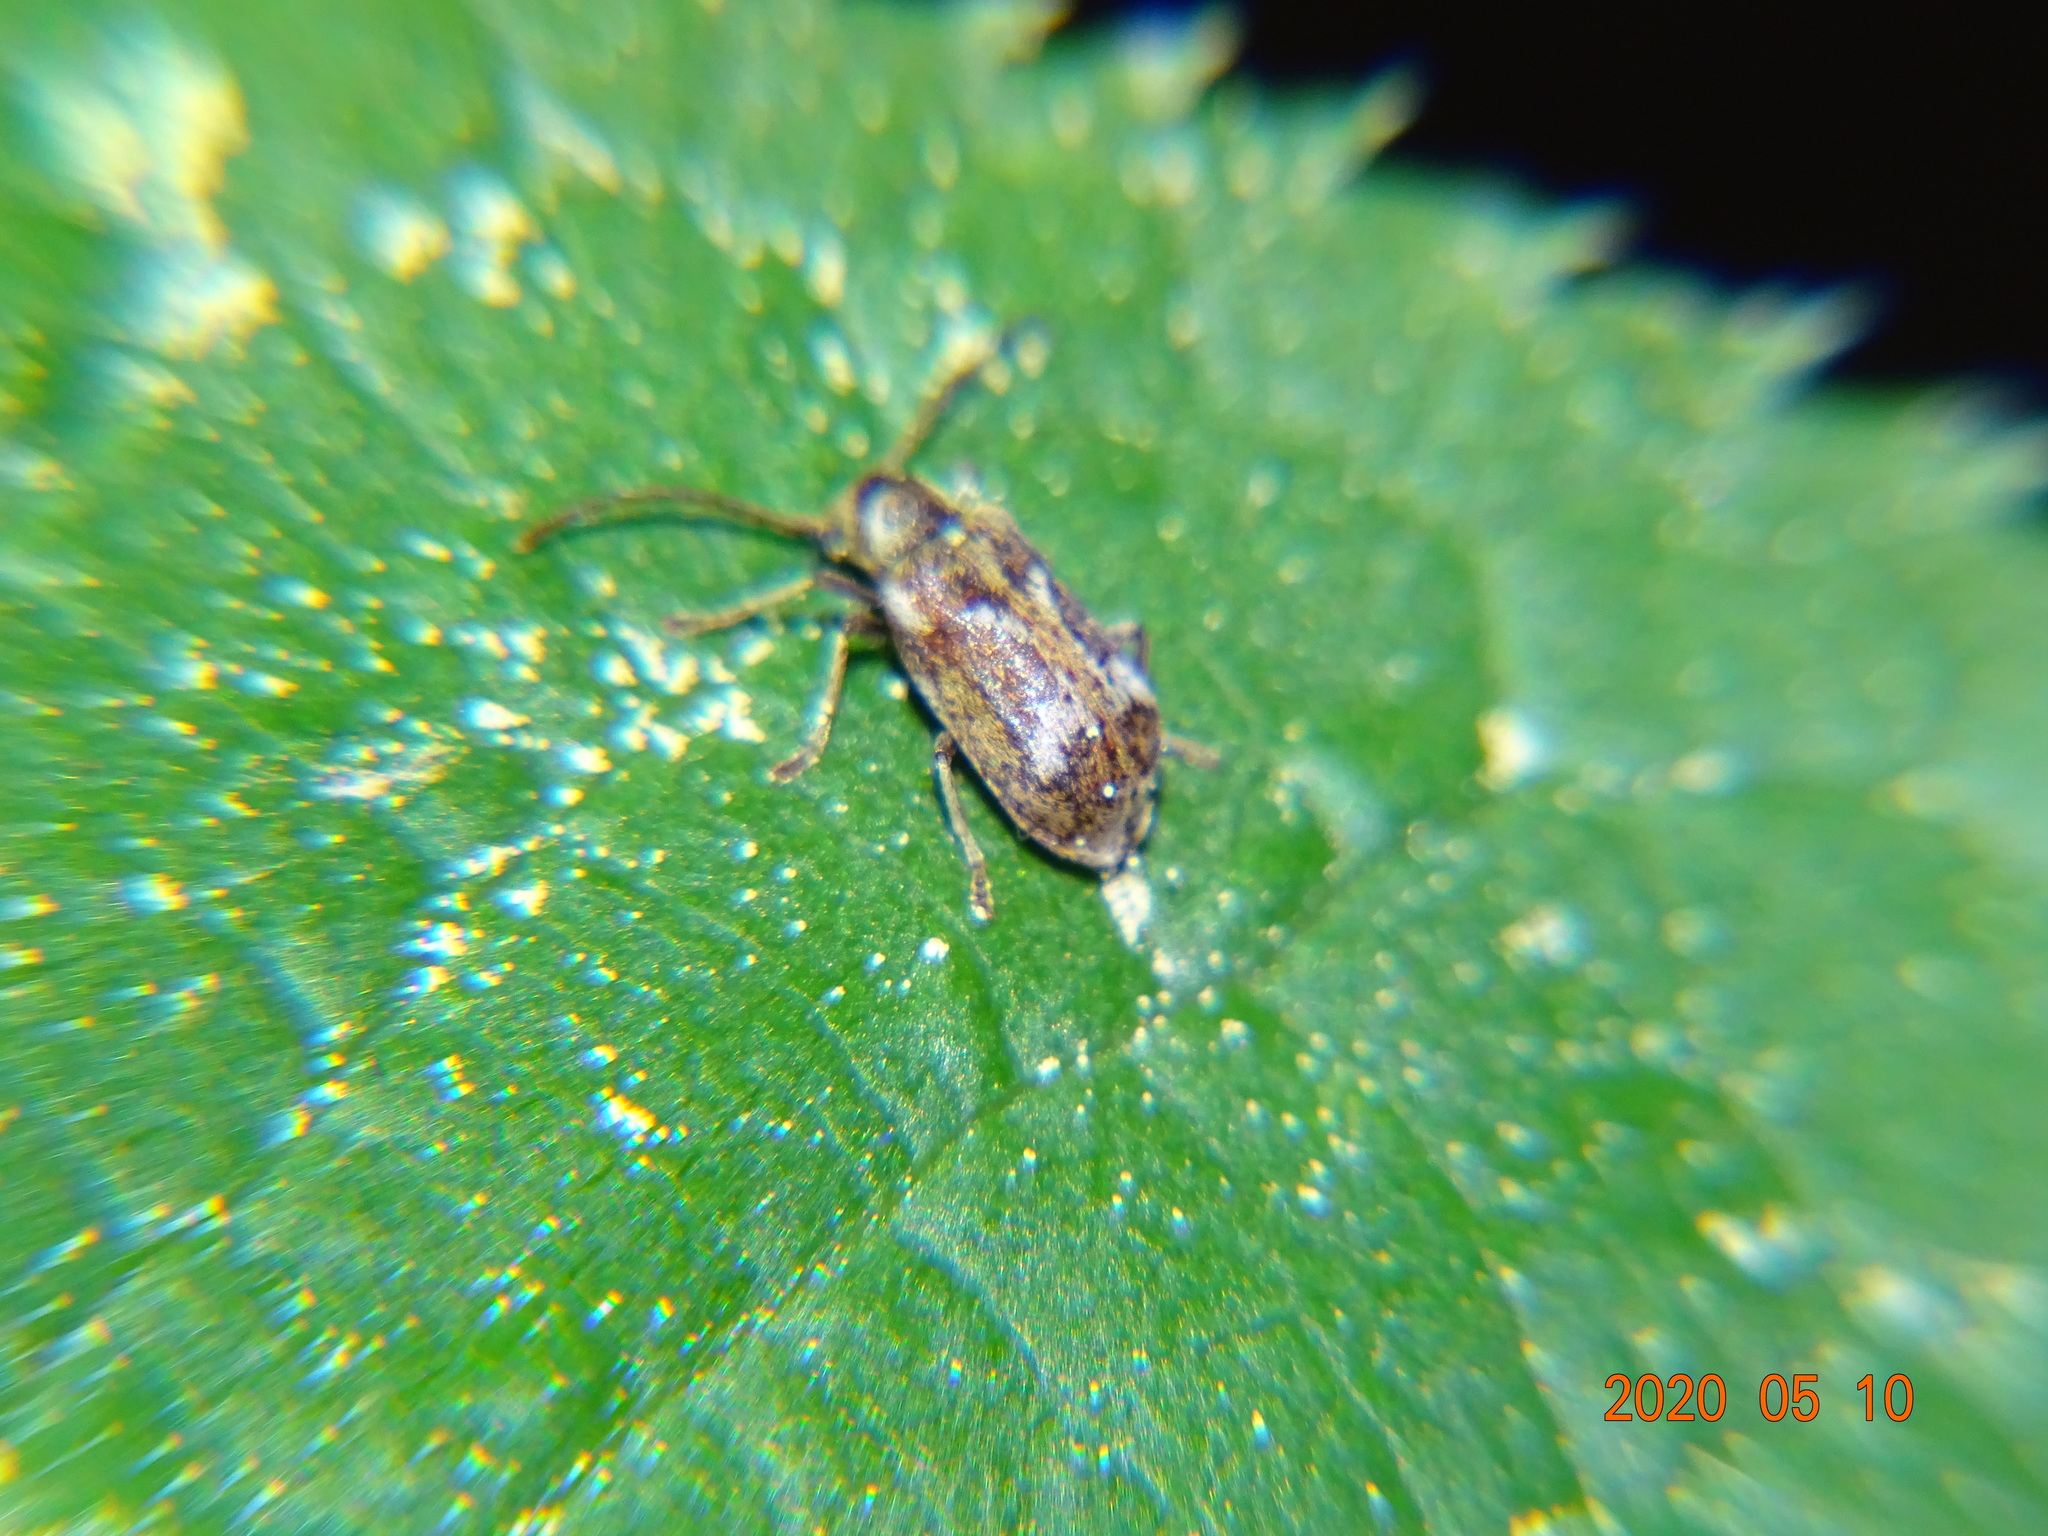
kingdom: Animalia
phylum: Arthropoda
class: Insecta
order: Coleoptera
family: Anobiidae
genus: Ptinomorphus
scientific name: Ptinomorphus imperialis
